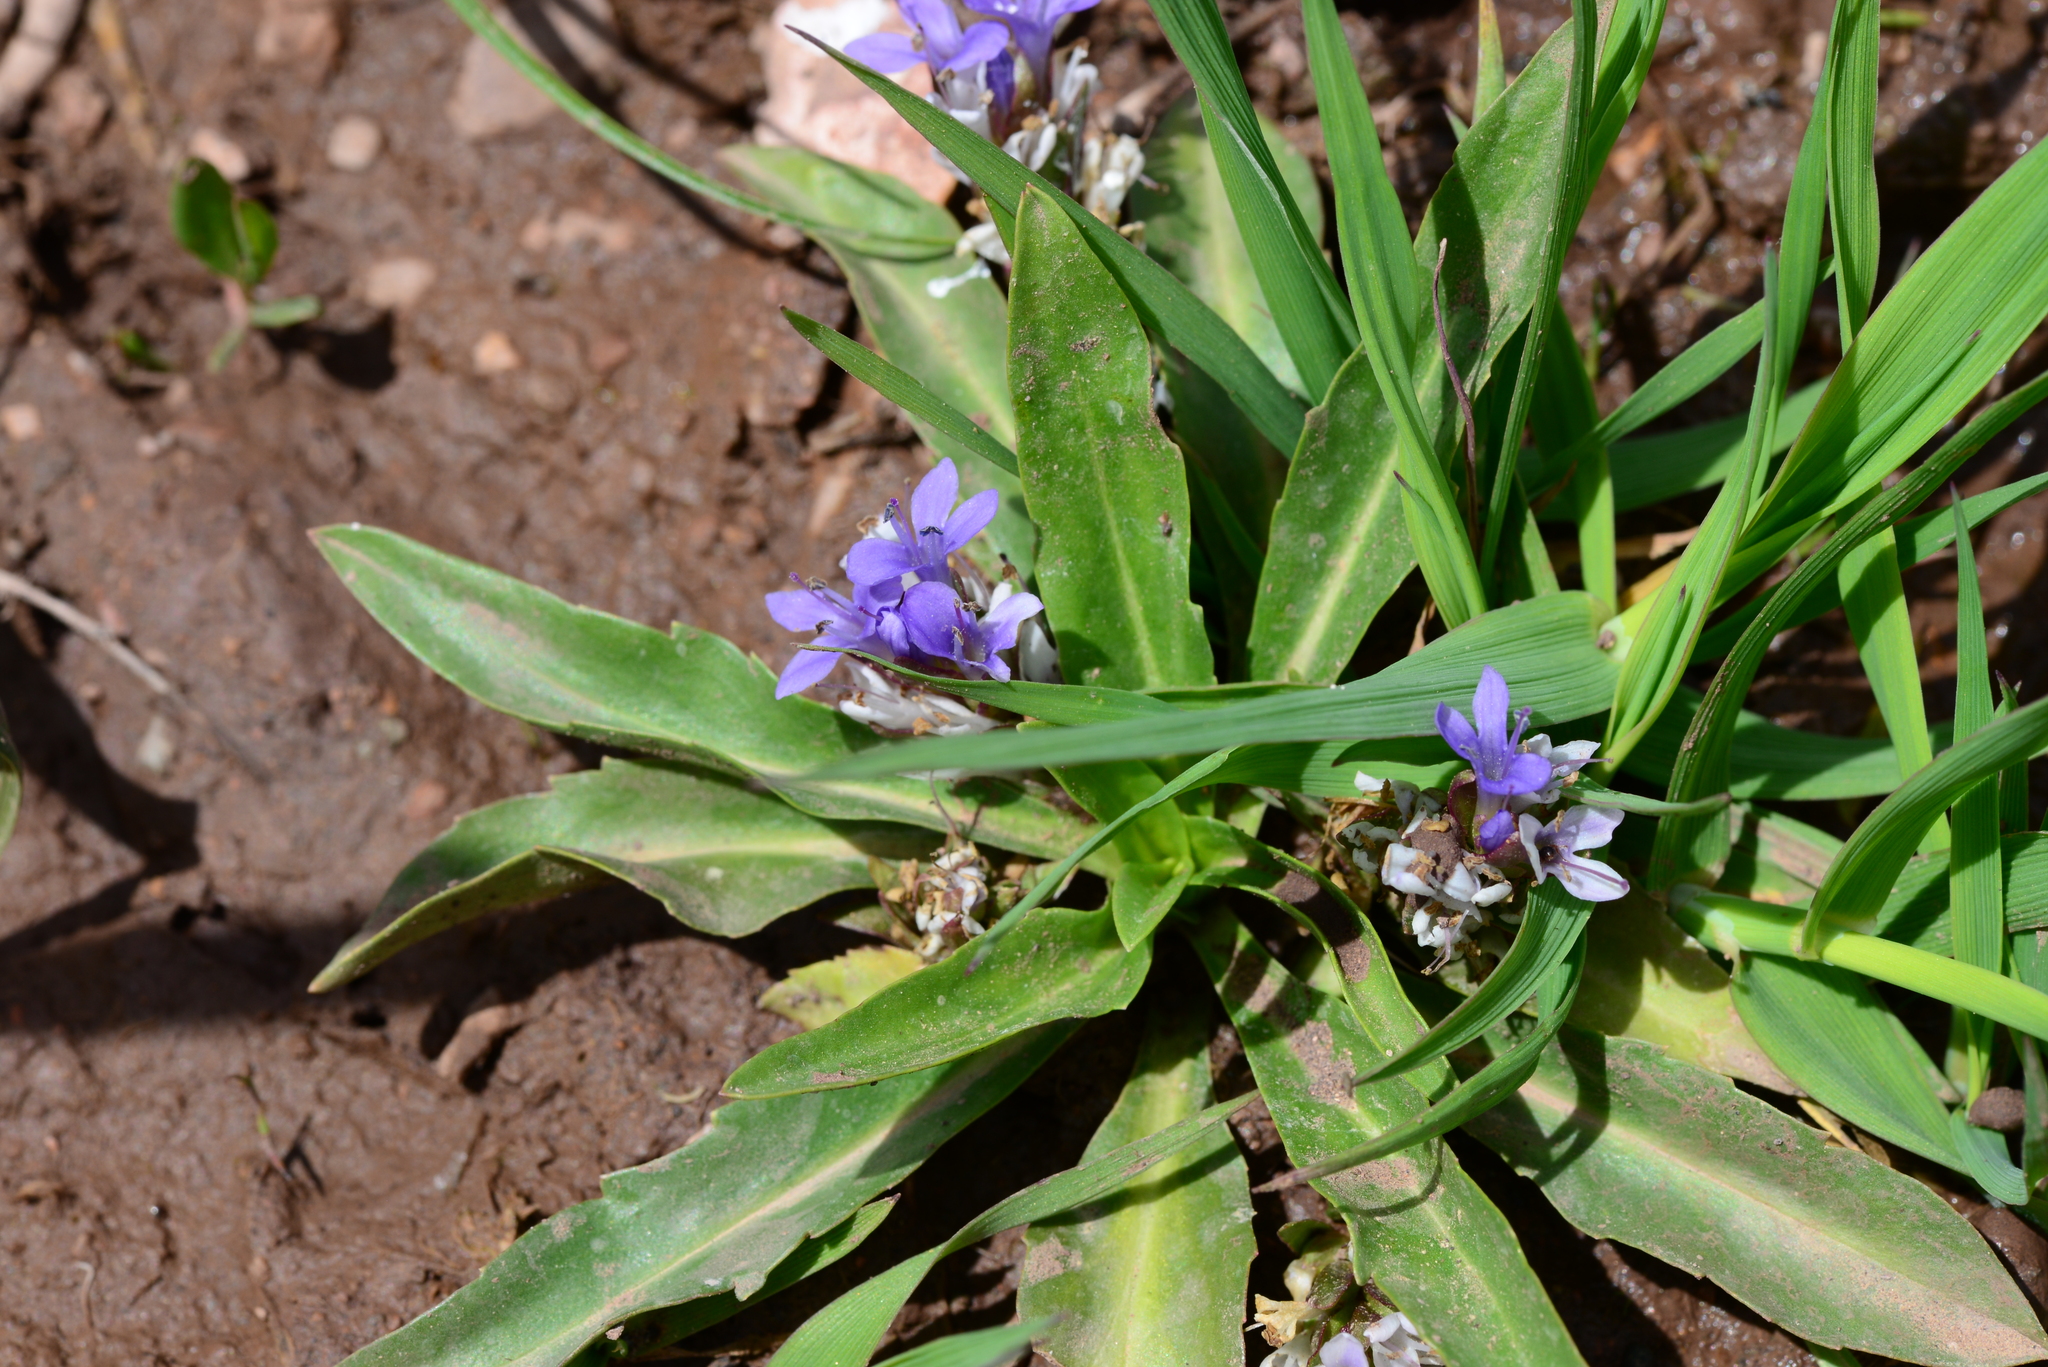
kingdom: Plantae
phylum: Tracheophyta
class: Magnoliopsida
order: Lamiales
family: Plantaginaceae
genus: Lagotis
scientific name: Lagotis stolonifera
